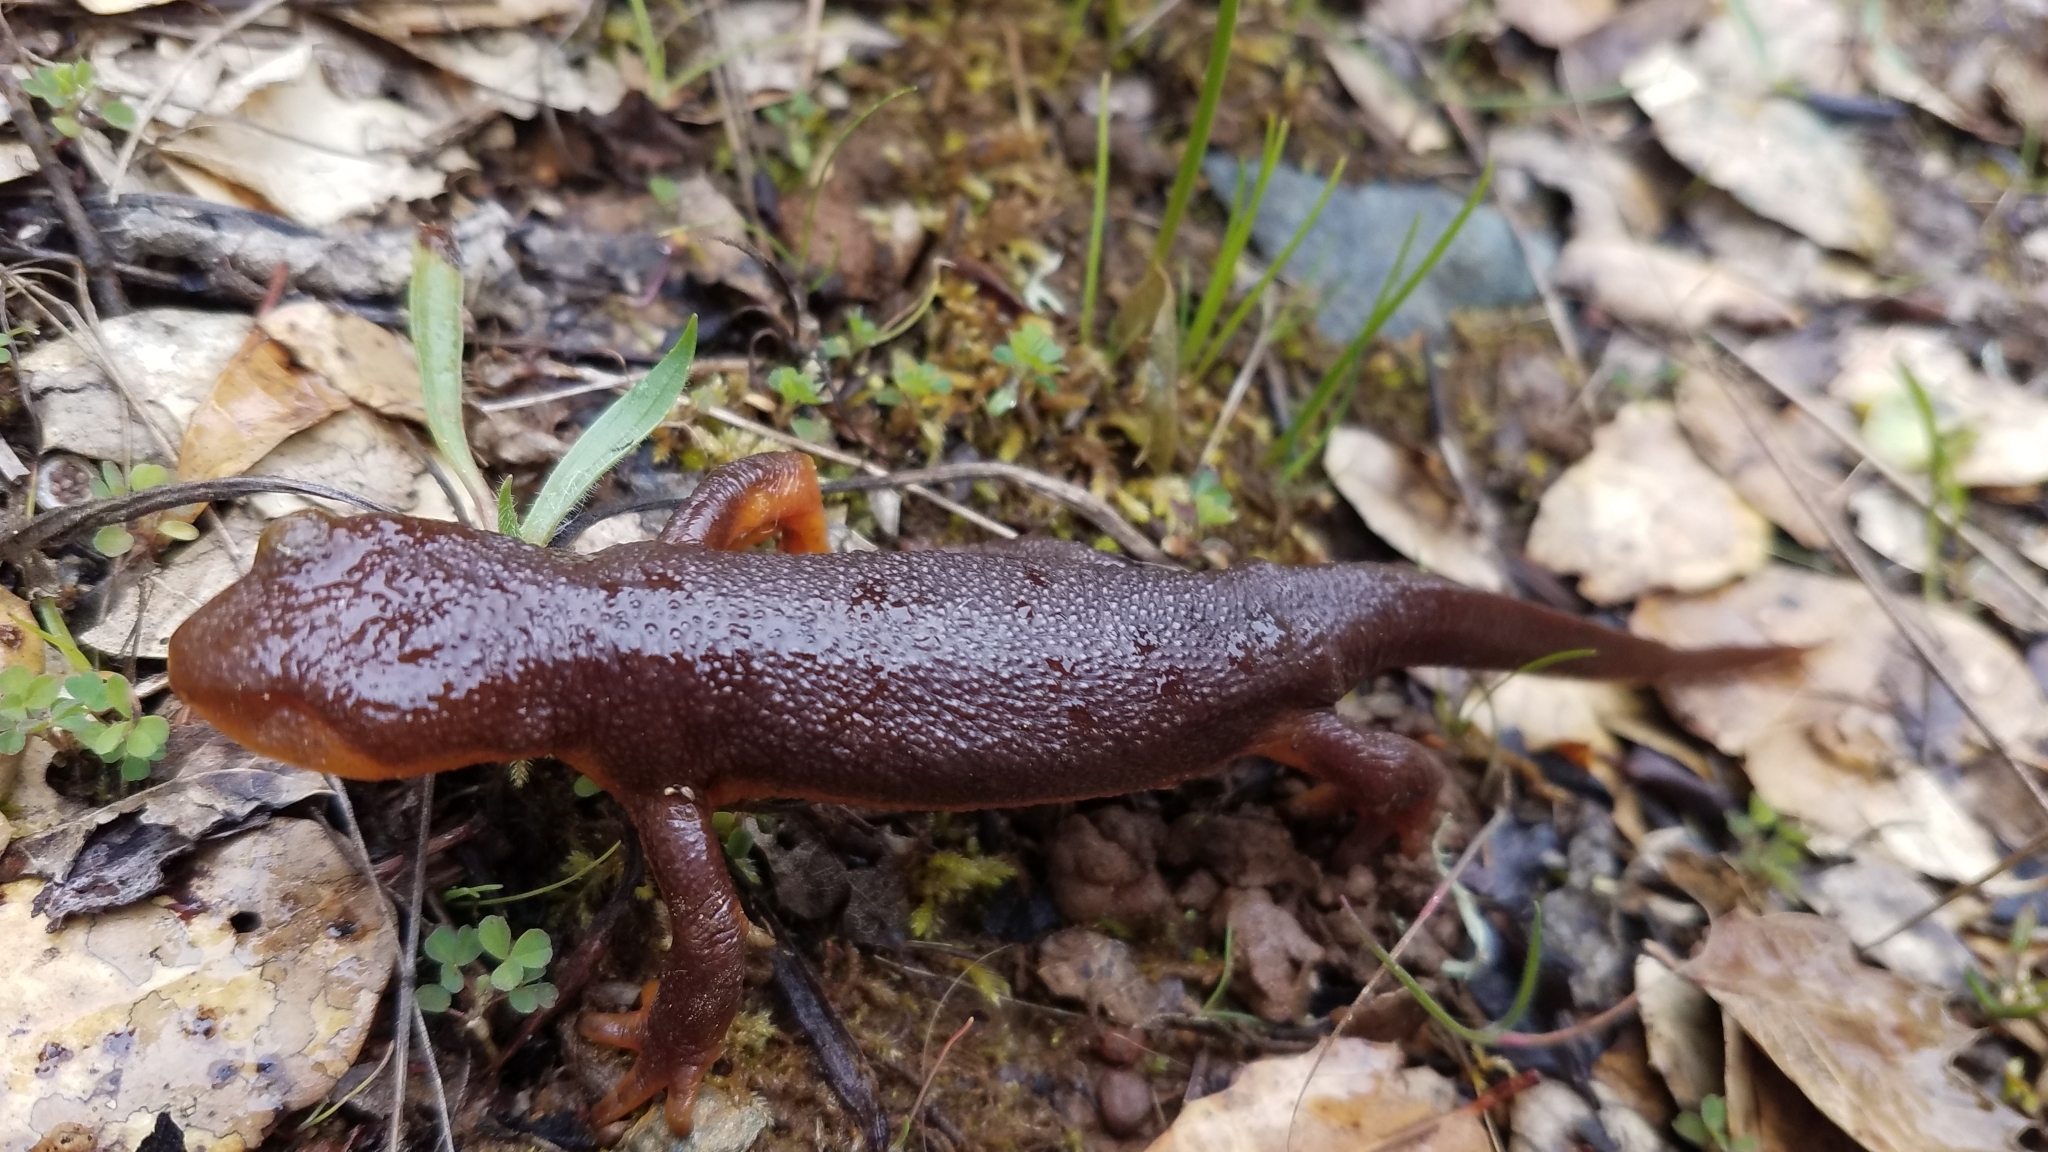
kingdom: Animalia
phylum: Chordata
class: Amphibia
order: Caudata
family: Salamandridae
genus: Taricha
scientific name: Taricha torosa
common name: California newt
